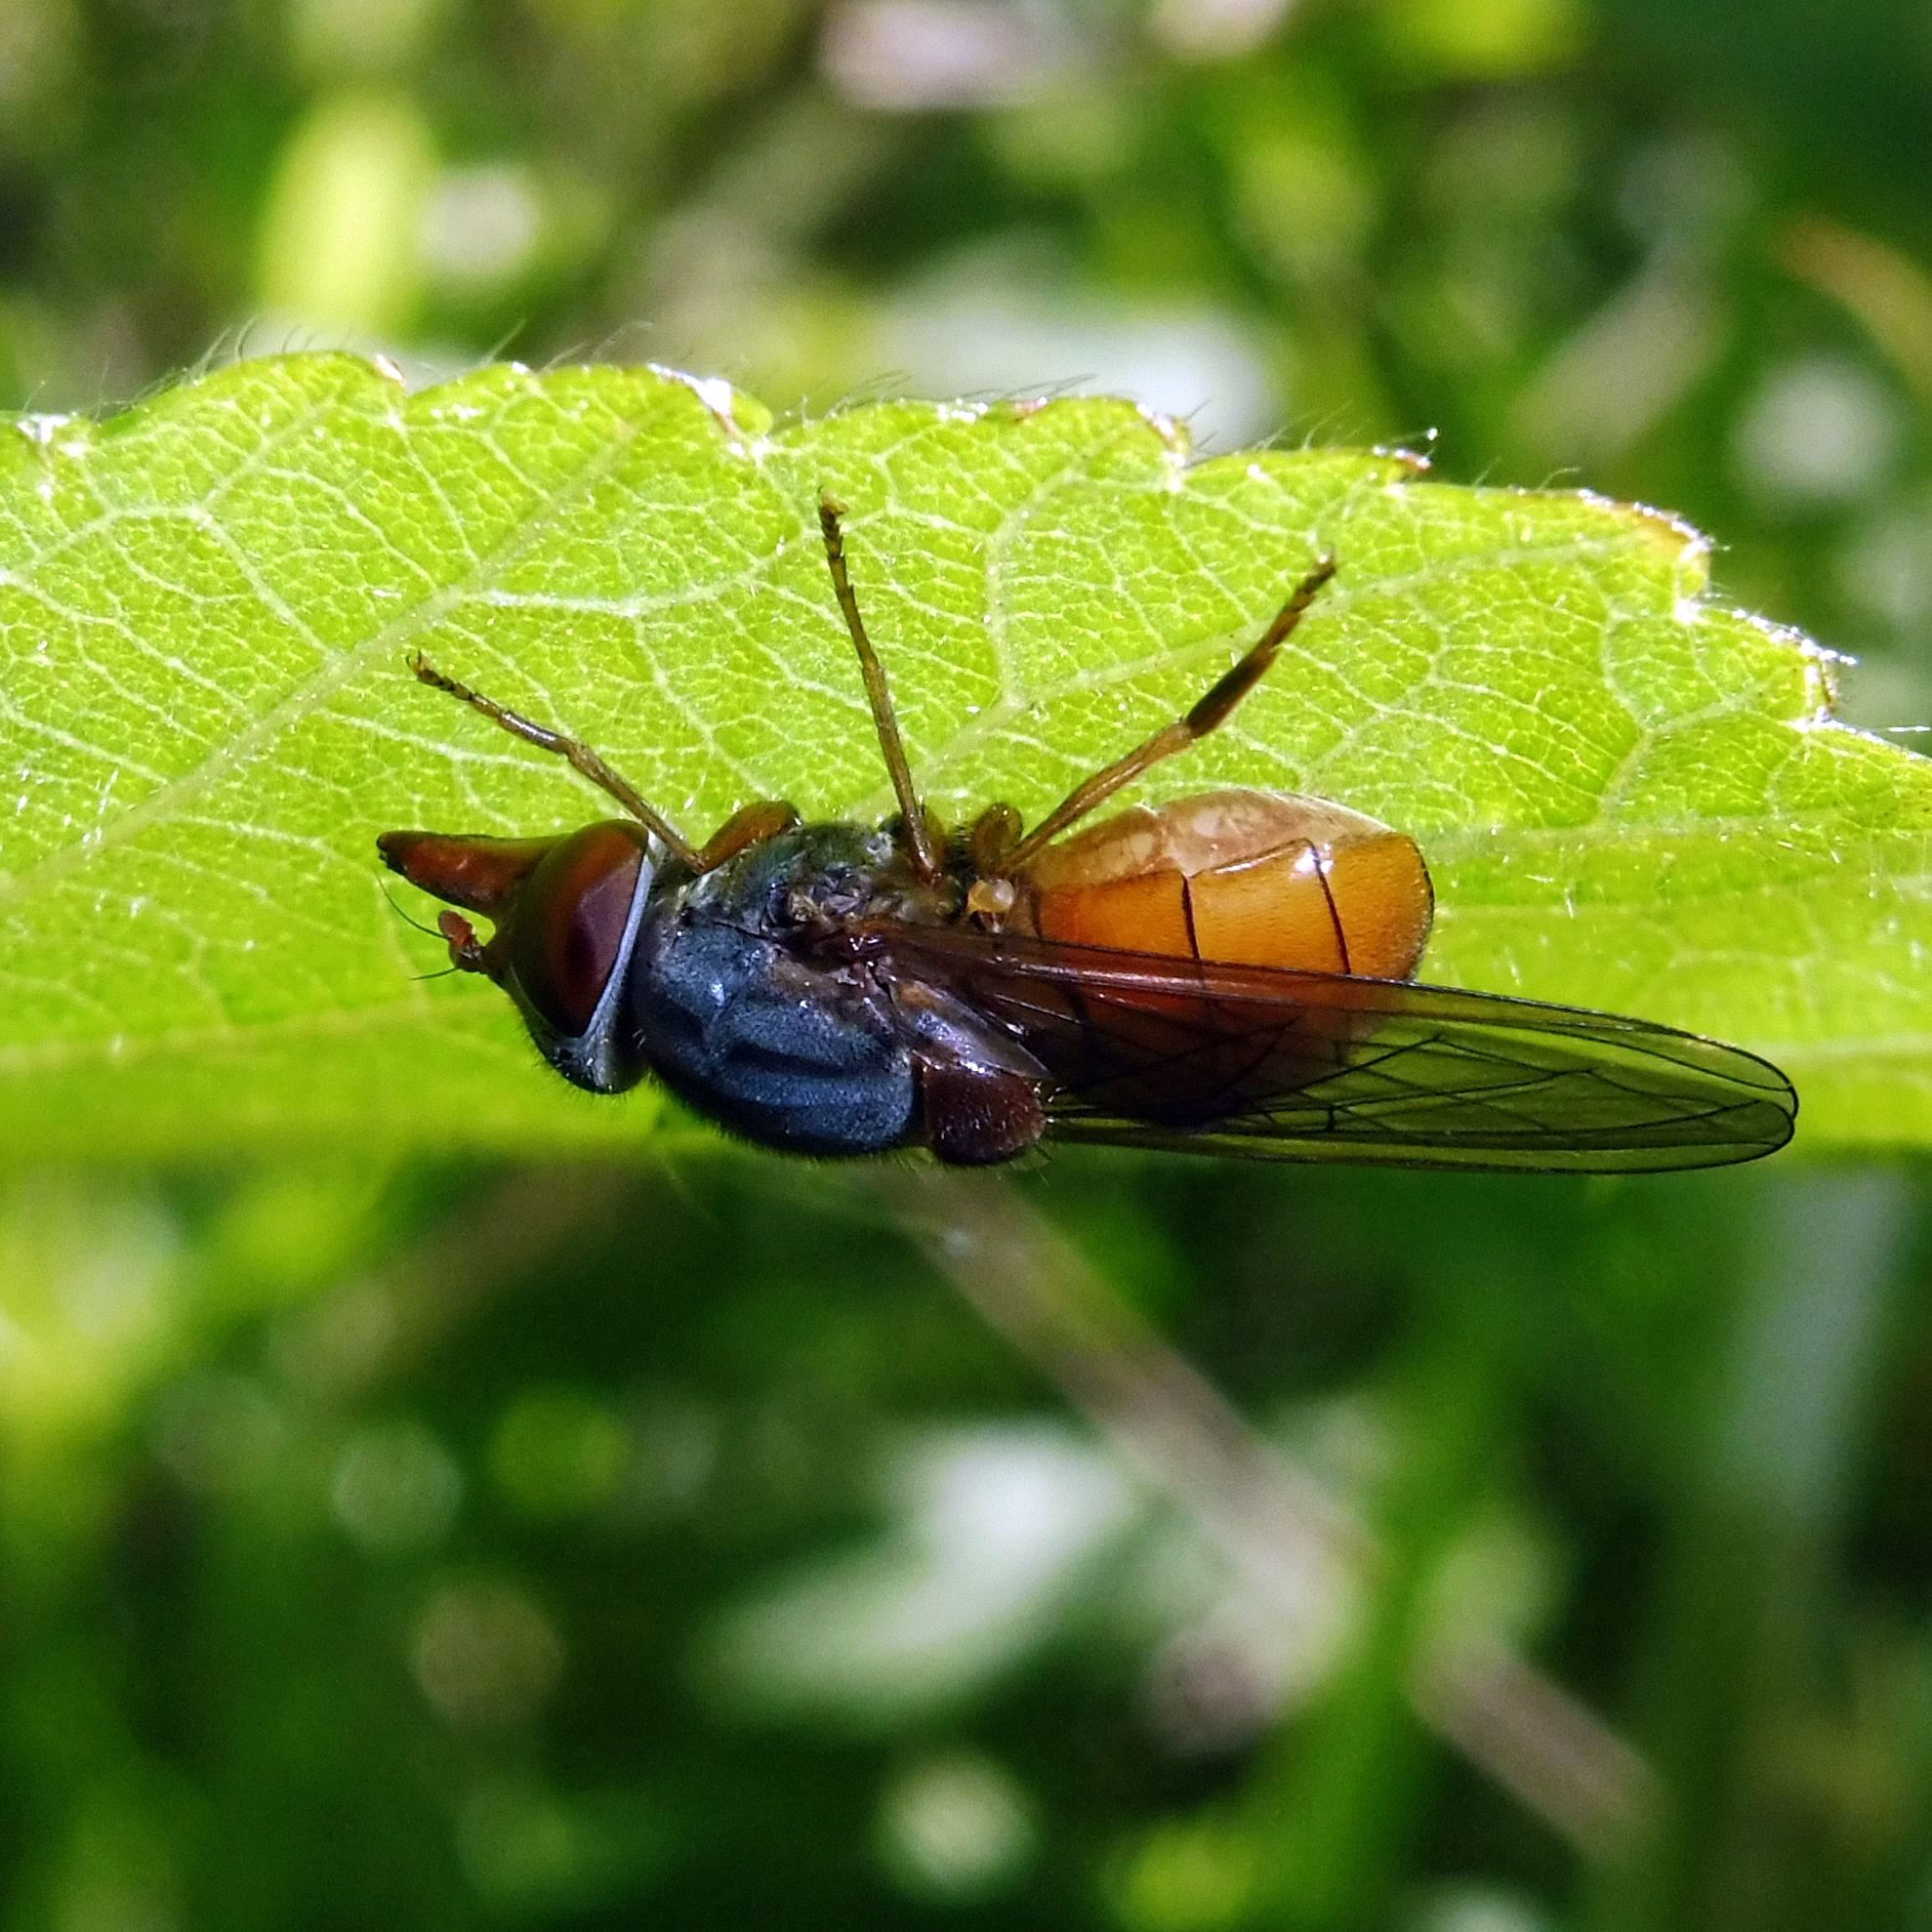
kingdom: Animalia
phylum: Arthropoda
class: Insecta
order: Diptera
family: Syrphidae
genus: Rhingia
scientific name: Rhingia rostrata
